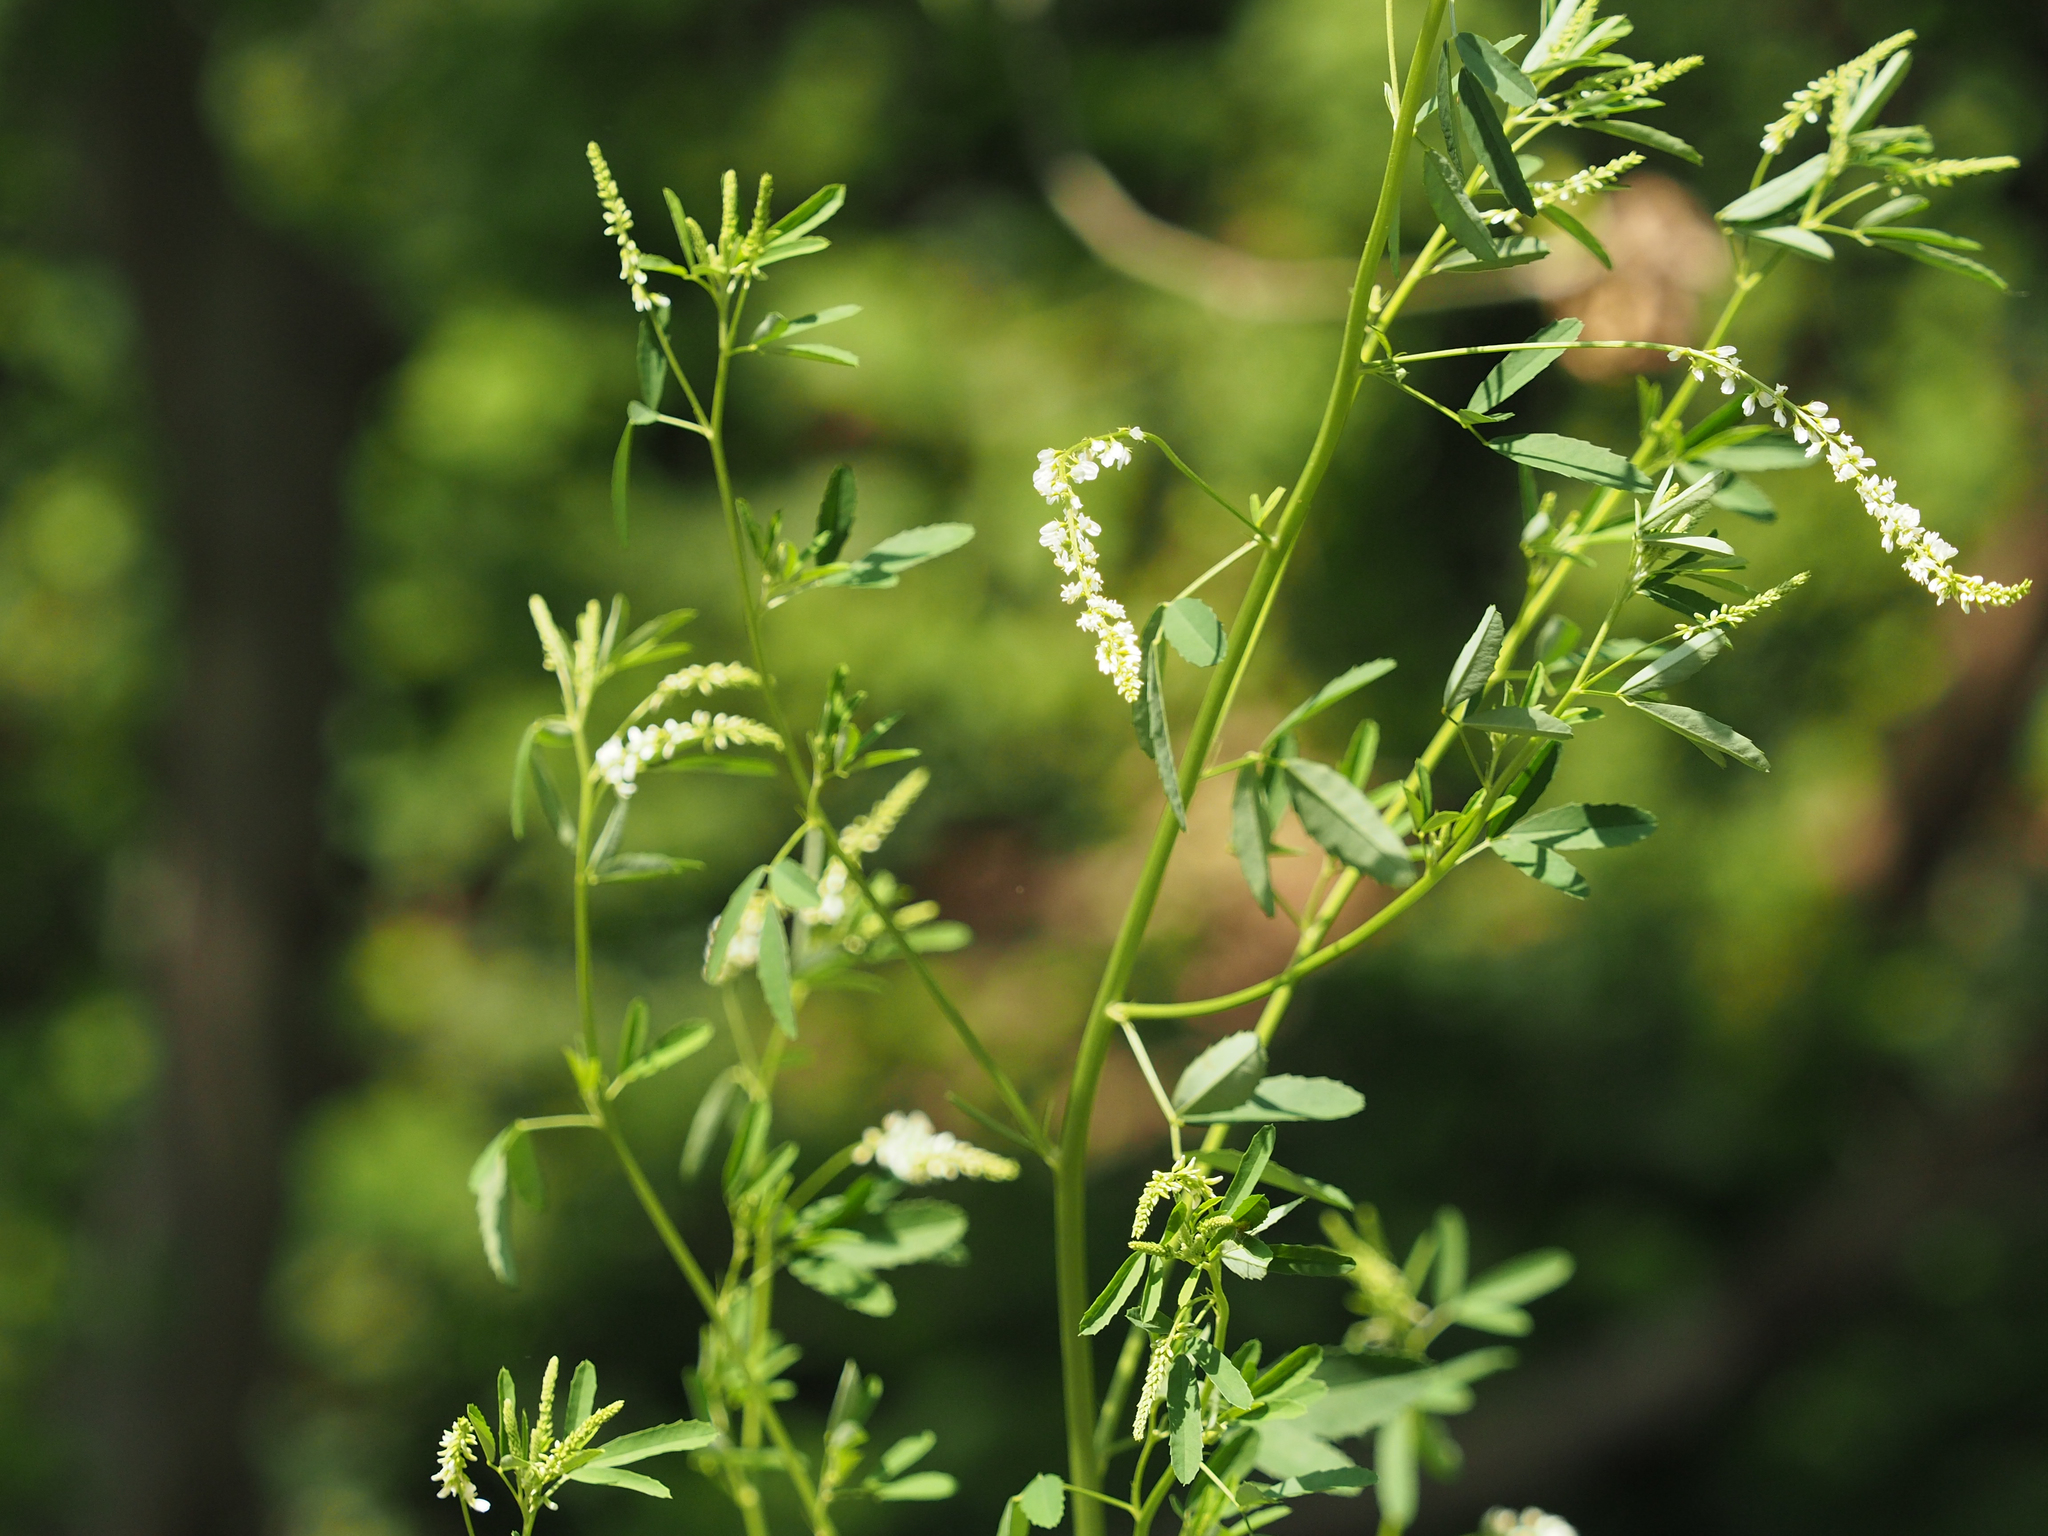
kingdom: Plantae
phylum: Tracheophyta
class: Magnoliopsida
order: Fabales
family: Fabaceae
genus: Melilotus
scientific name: Melilotus albus
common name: White melilot
